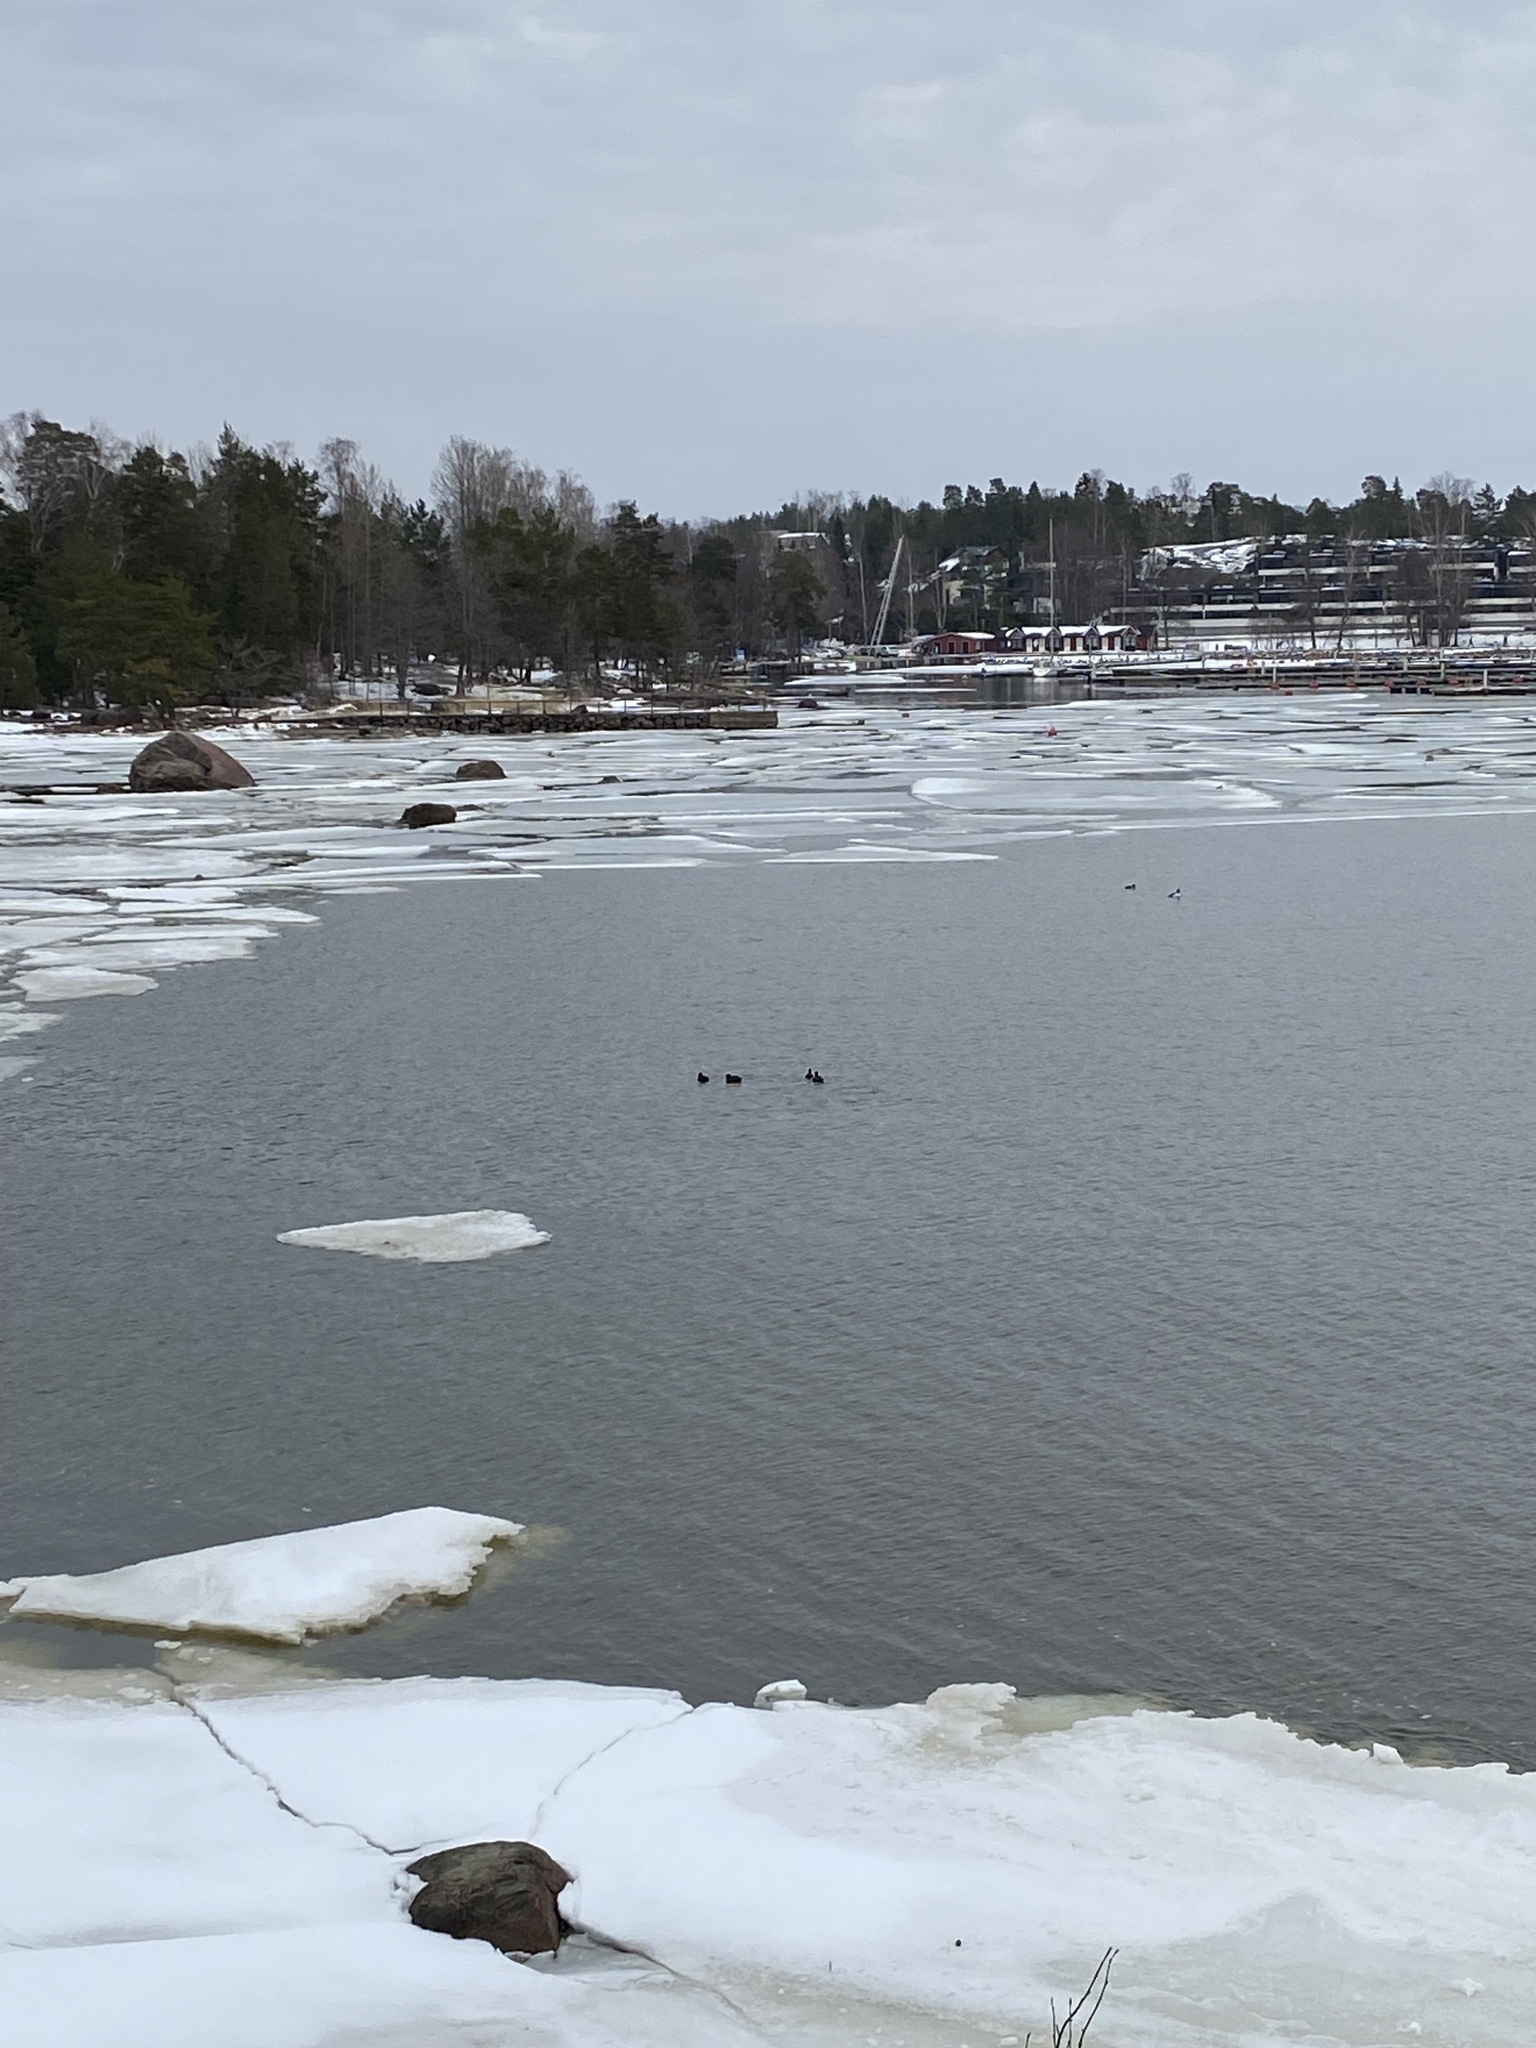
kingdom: Animalia
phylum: Chordata
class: Aves
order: Gruiformes
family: Rallidae
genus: Fulica
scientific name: Fulica atra
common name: Eurasian coot
